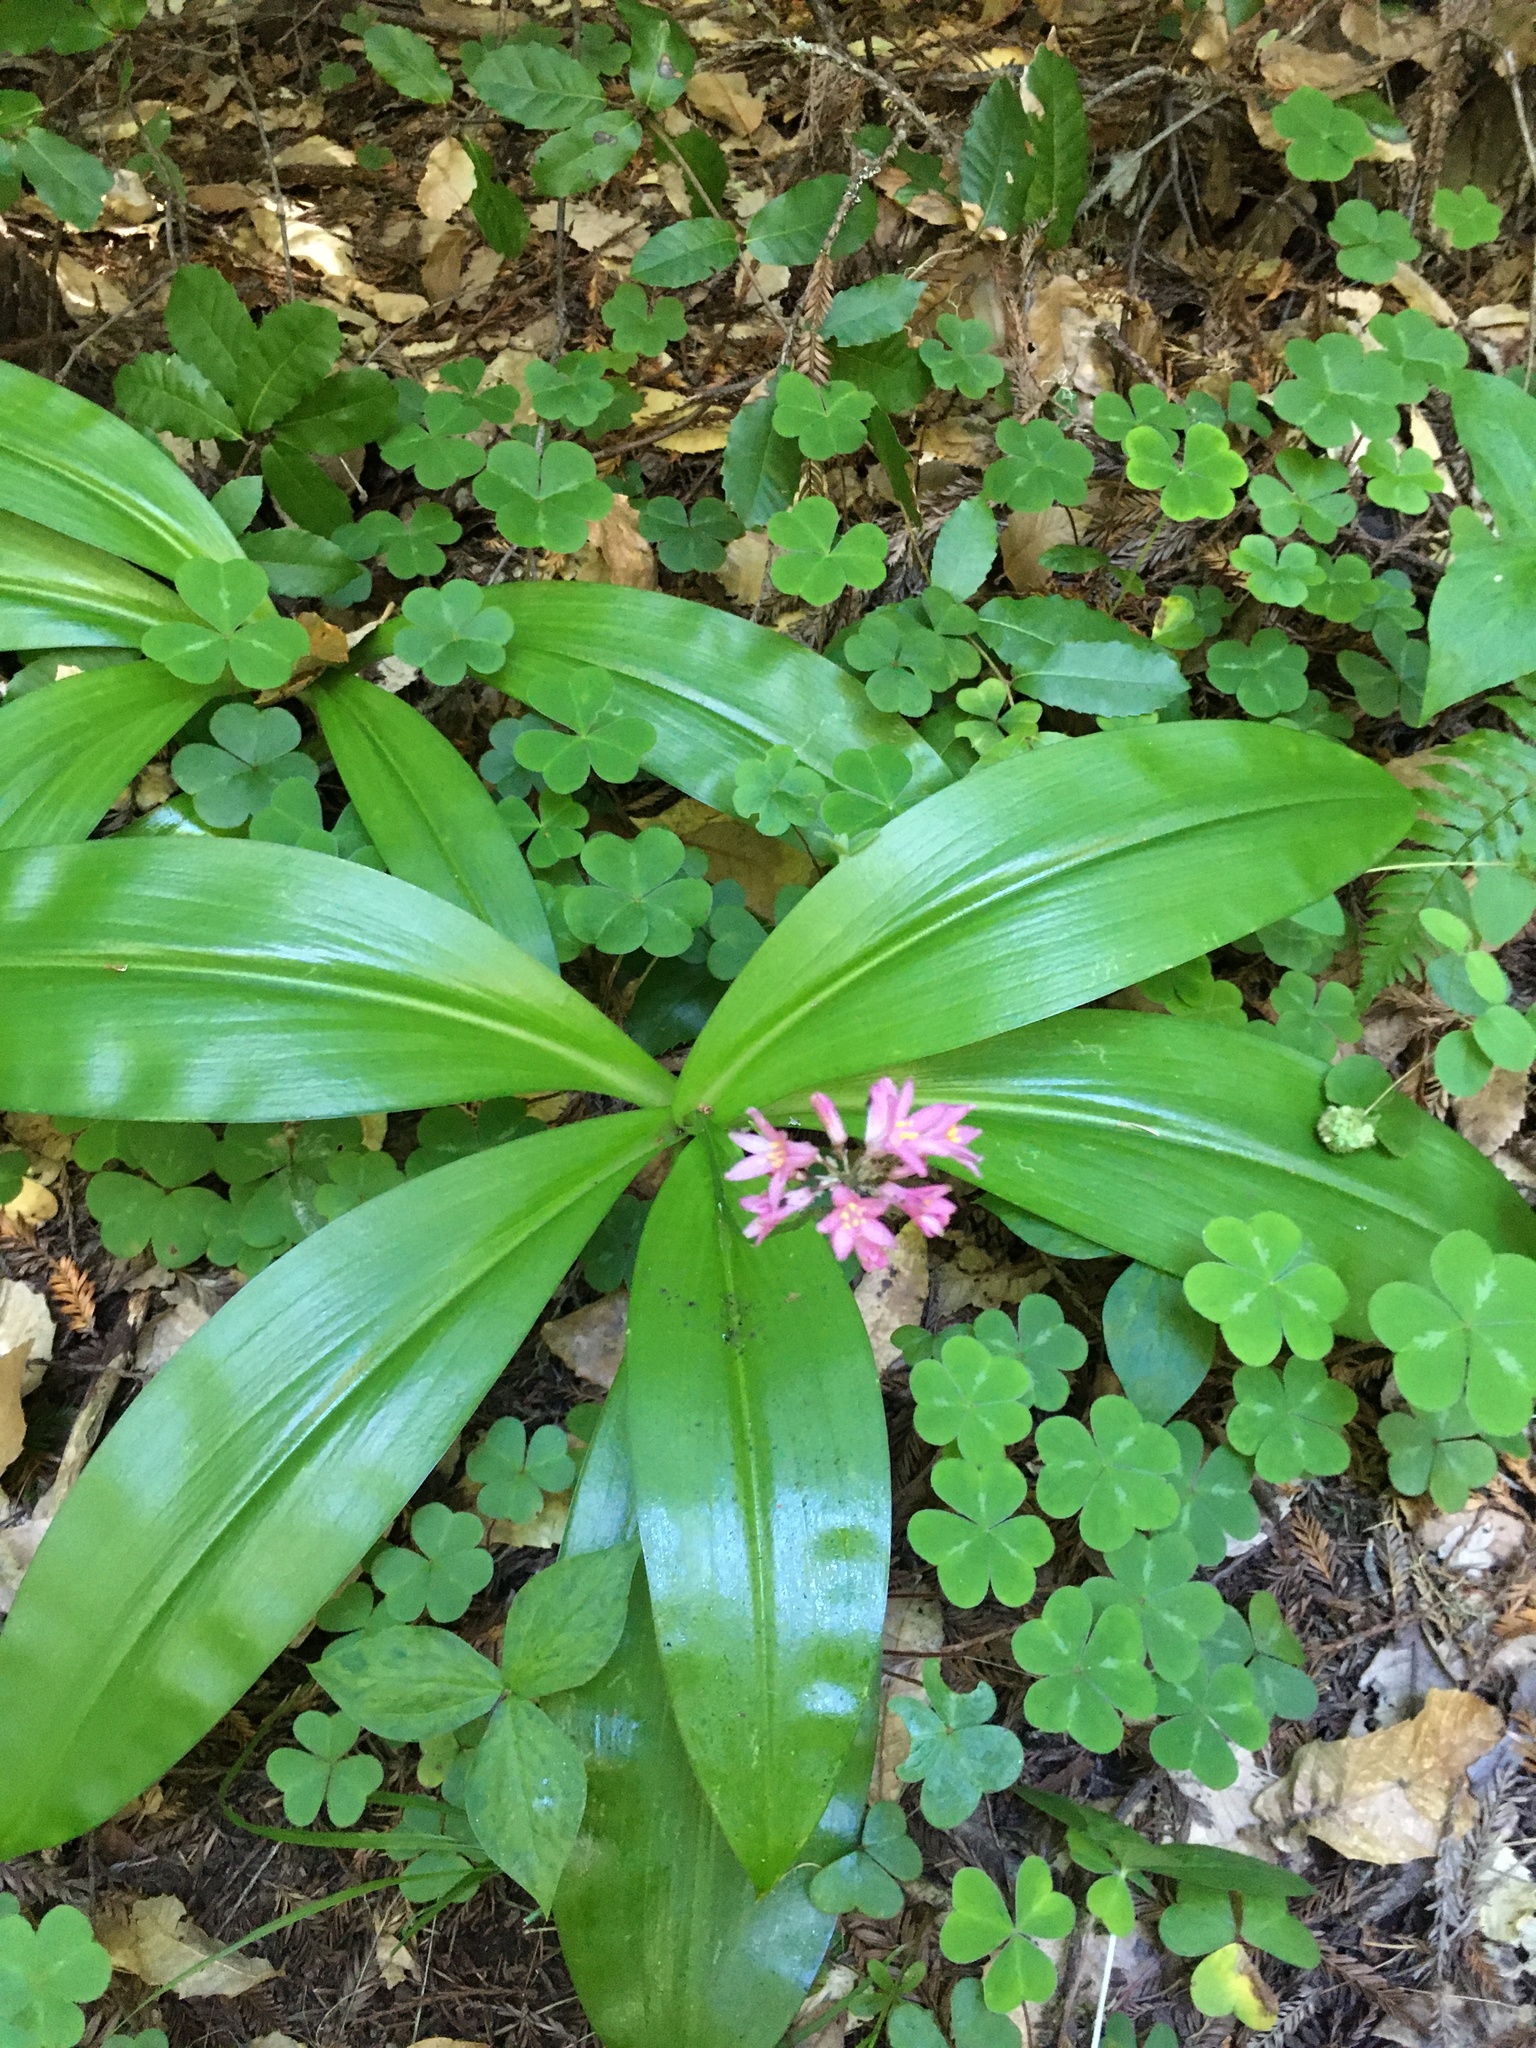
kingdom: Plantae
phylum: Tracheophyta
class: Liliopsida
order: Liliales
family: Liliaceae
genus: Clintonia
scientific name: Clintonia andrewsiana
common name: Red clintonia
